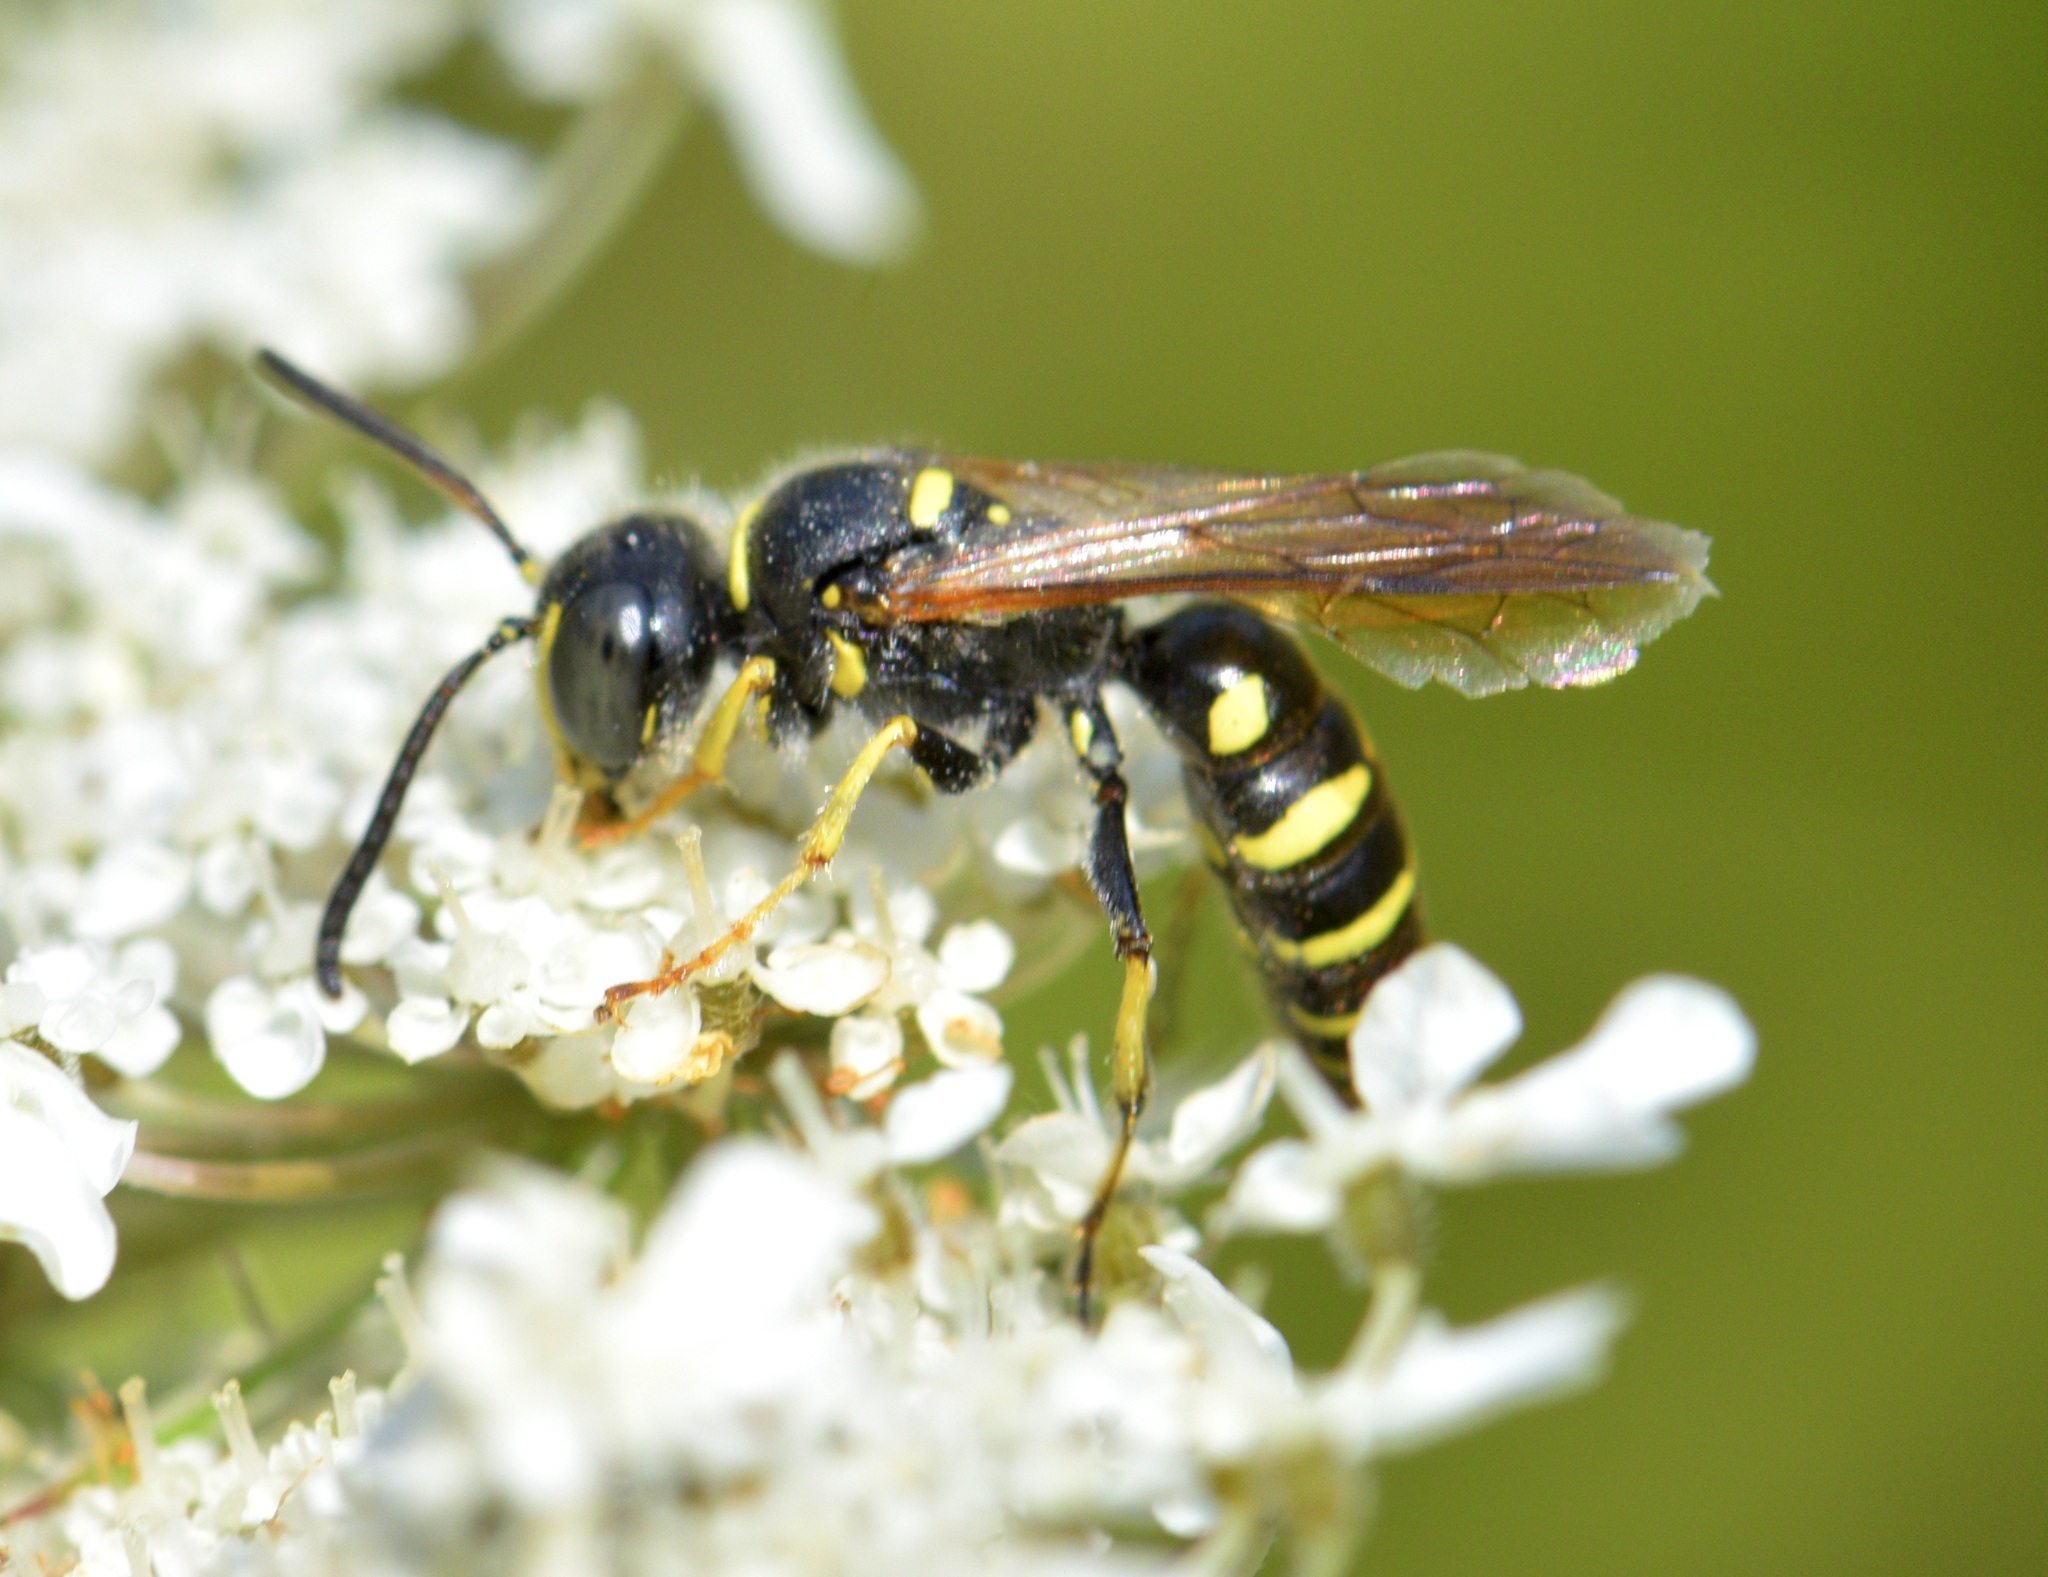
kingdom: Animalia
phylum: Arthropoda
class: Insecta
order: Hymenoptera
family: Crabronidae
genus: Aphilanthops
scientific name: Aphilanthops frigidus
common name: Queen ant kidnapper
